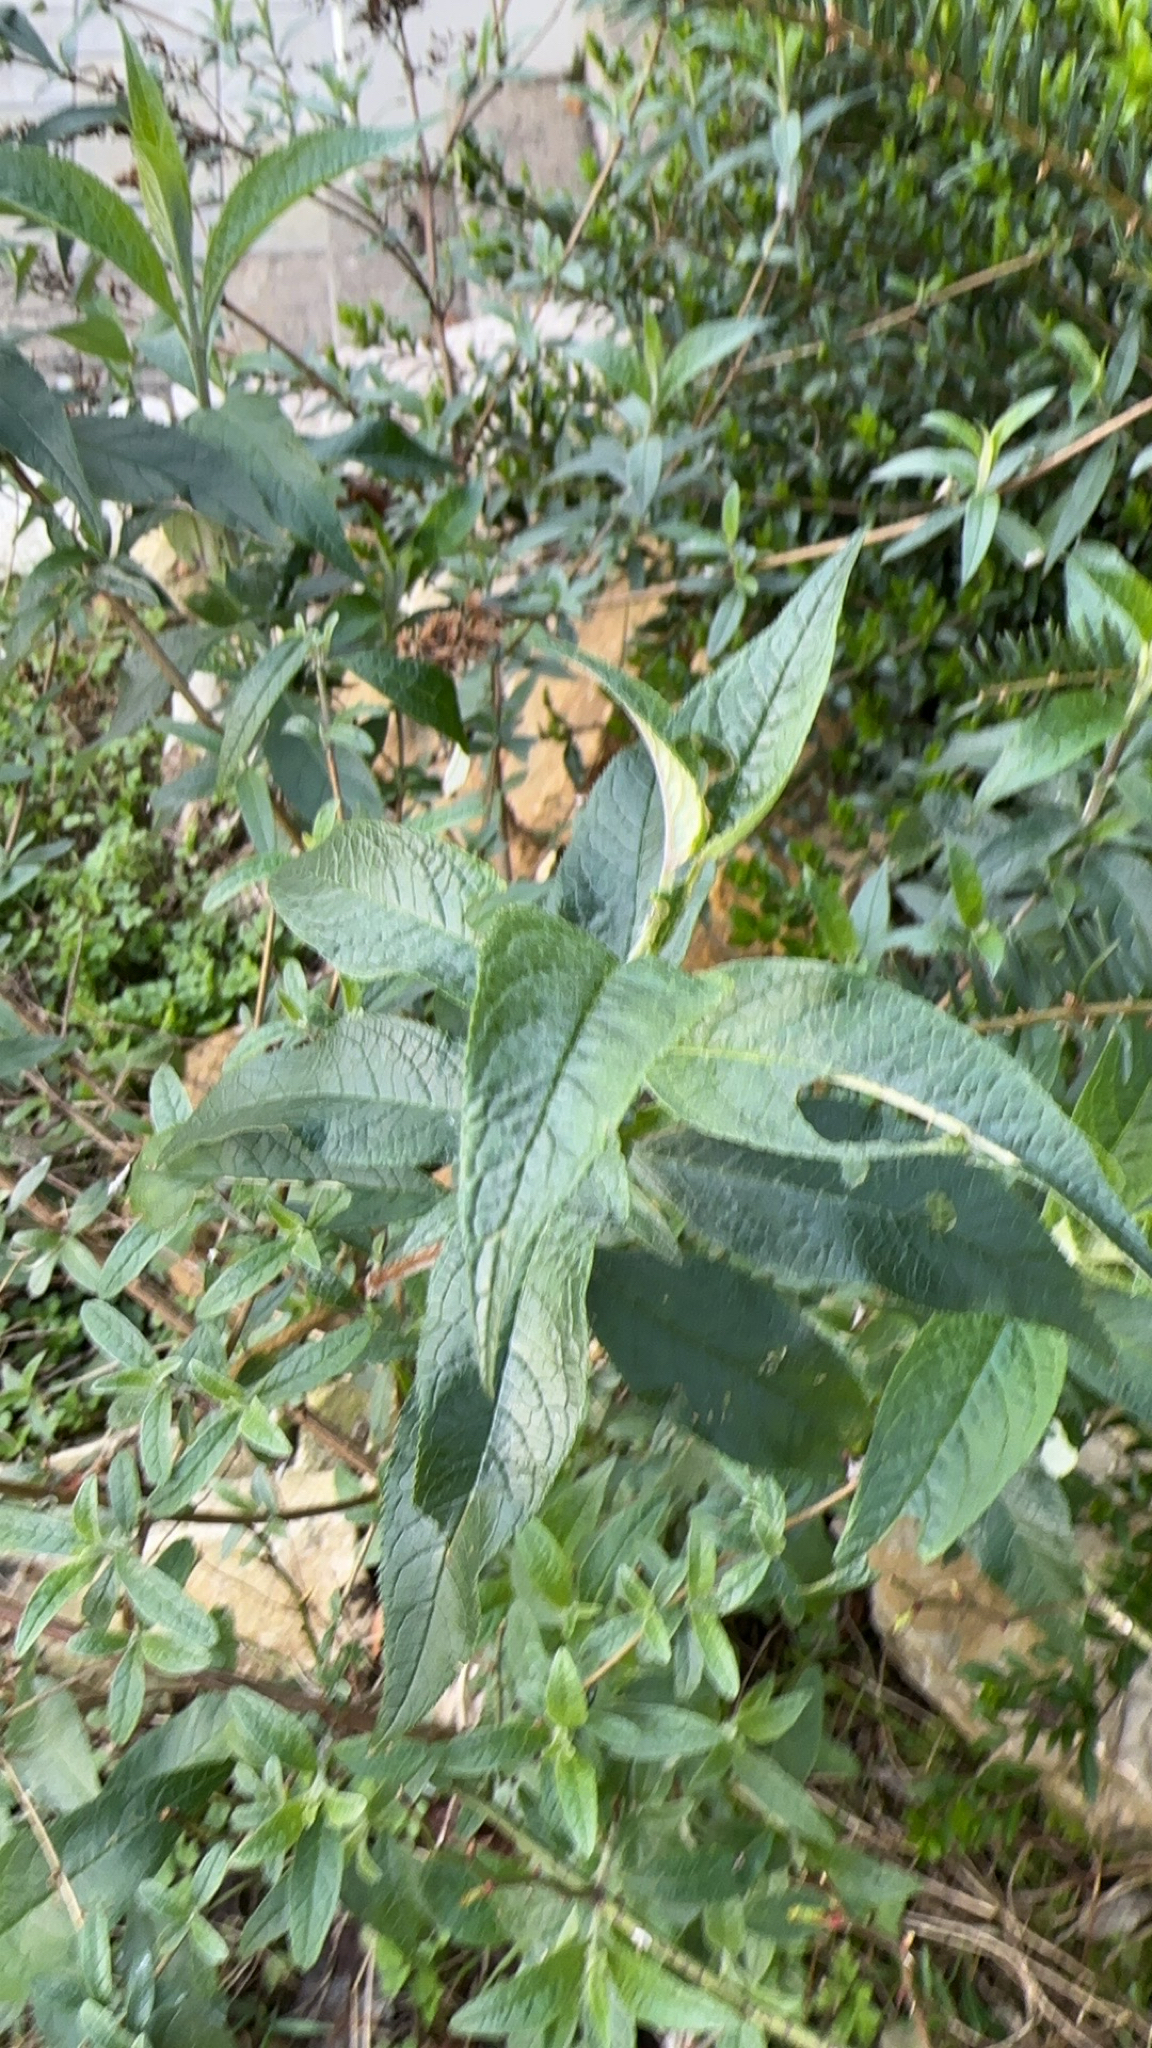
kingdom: Plantae
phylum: Tracheophyta
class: Magnoliopsida
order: Lamiales
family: Scrophulariaceae
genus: Buddleja
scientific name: Buddleja davidii
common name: Butterfly-bush
